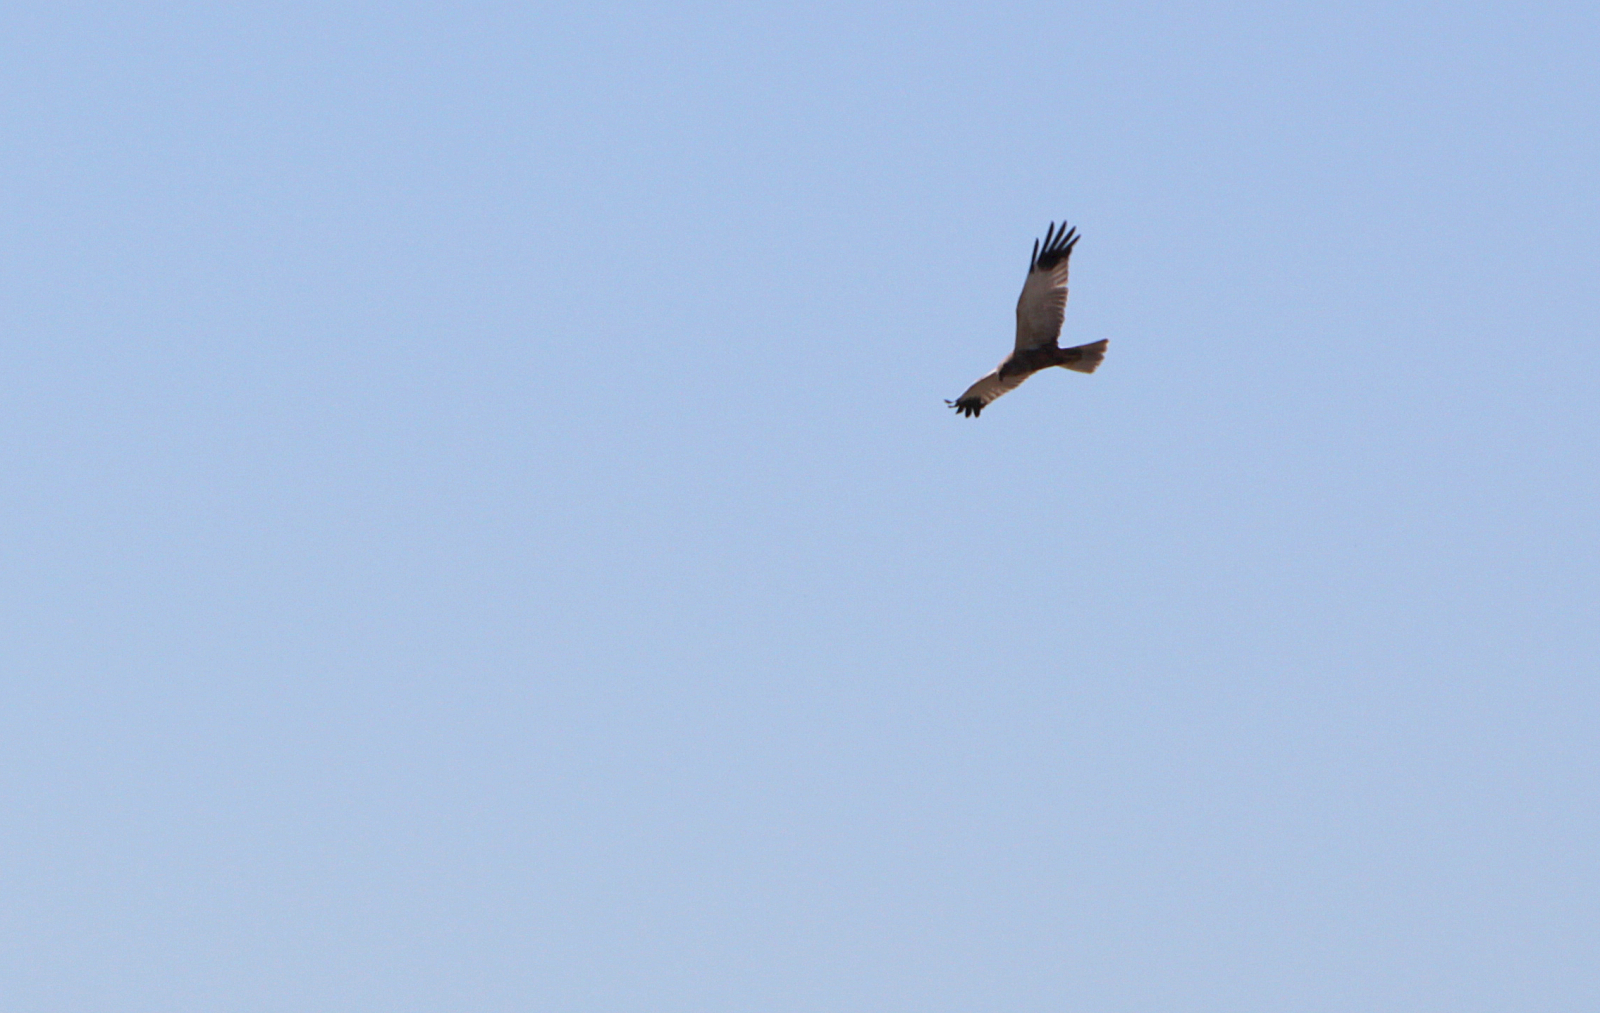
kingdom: Animalia
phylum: Chordata
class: Aves
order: Accipitriformes
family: Accipitridae
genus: Circus
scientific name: Circus aeruginosus
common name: Western marsh harrier
